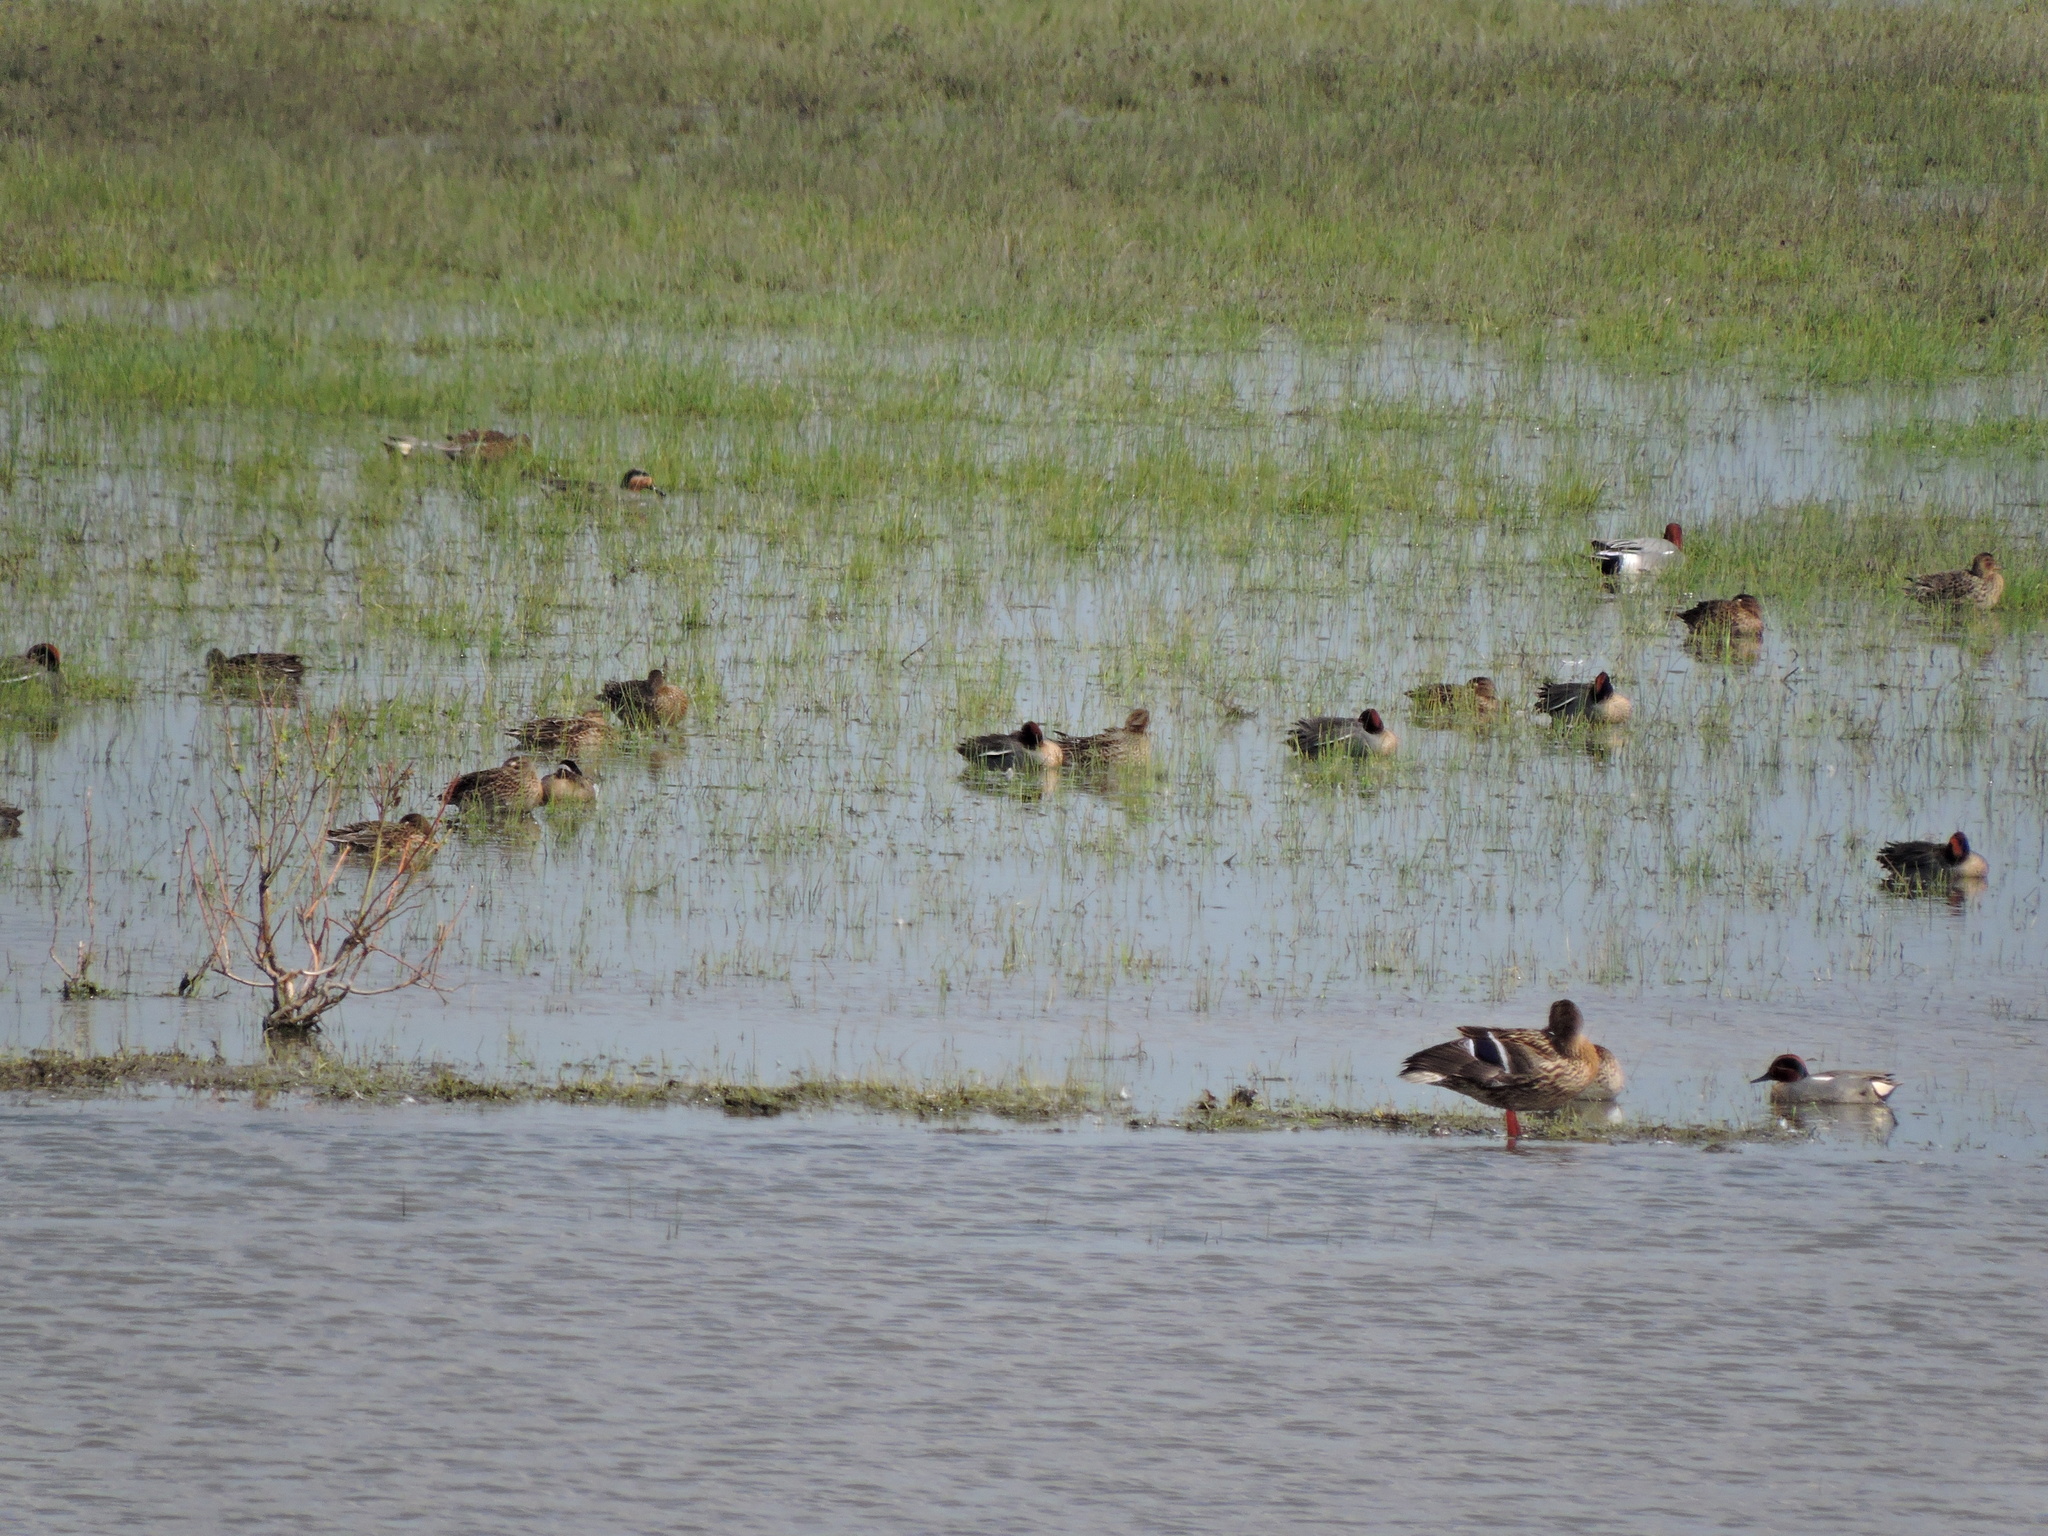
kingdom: Animalia
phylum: Chordata
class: Aves
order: Anseriformes
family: Anatidae
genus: Anas
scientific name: Anas crecca
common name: Eurasian teal
